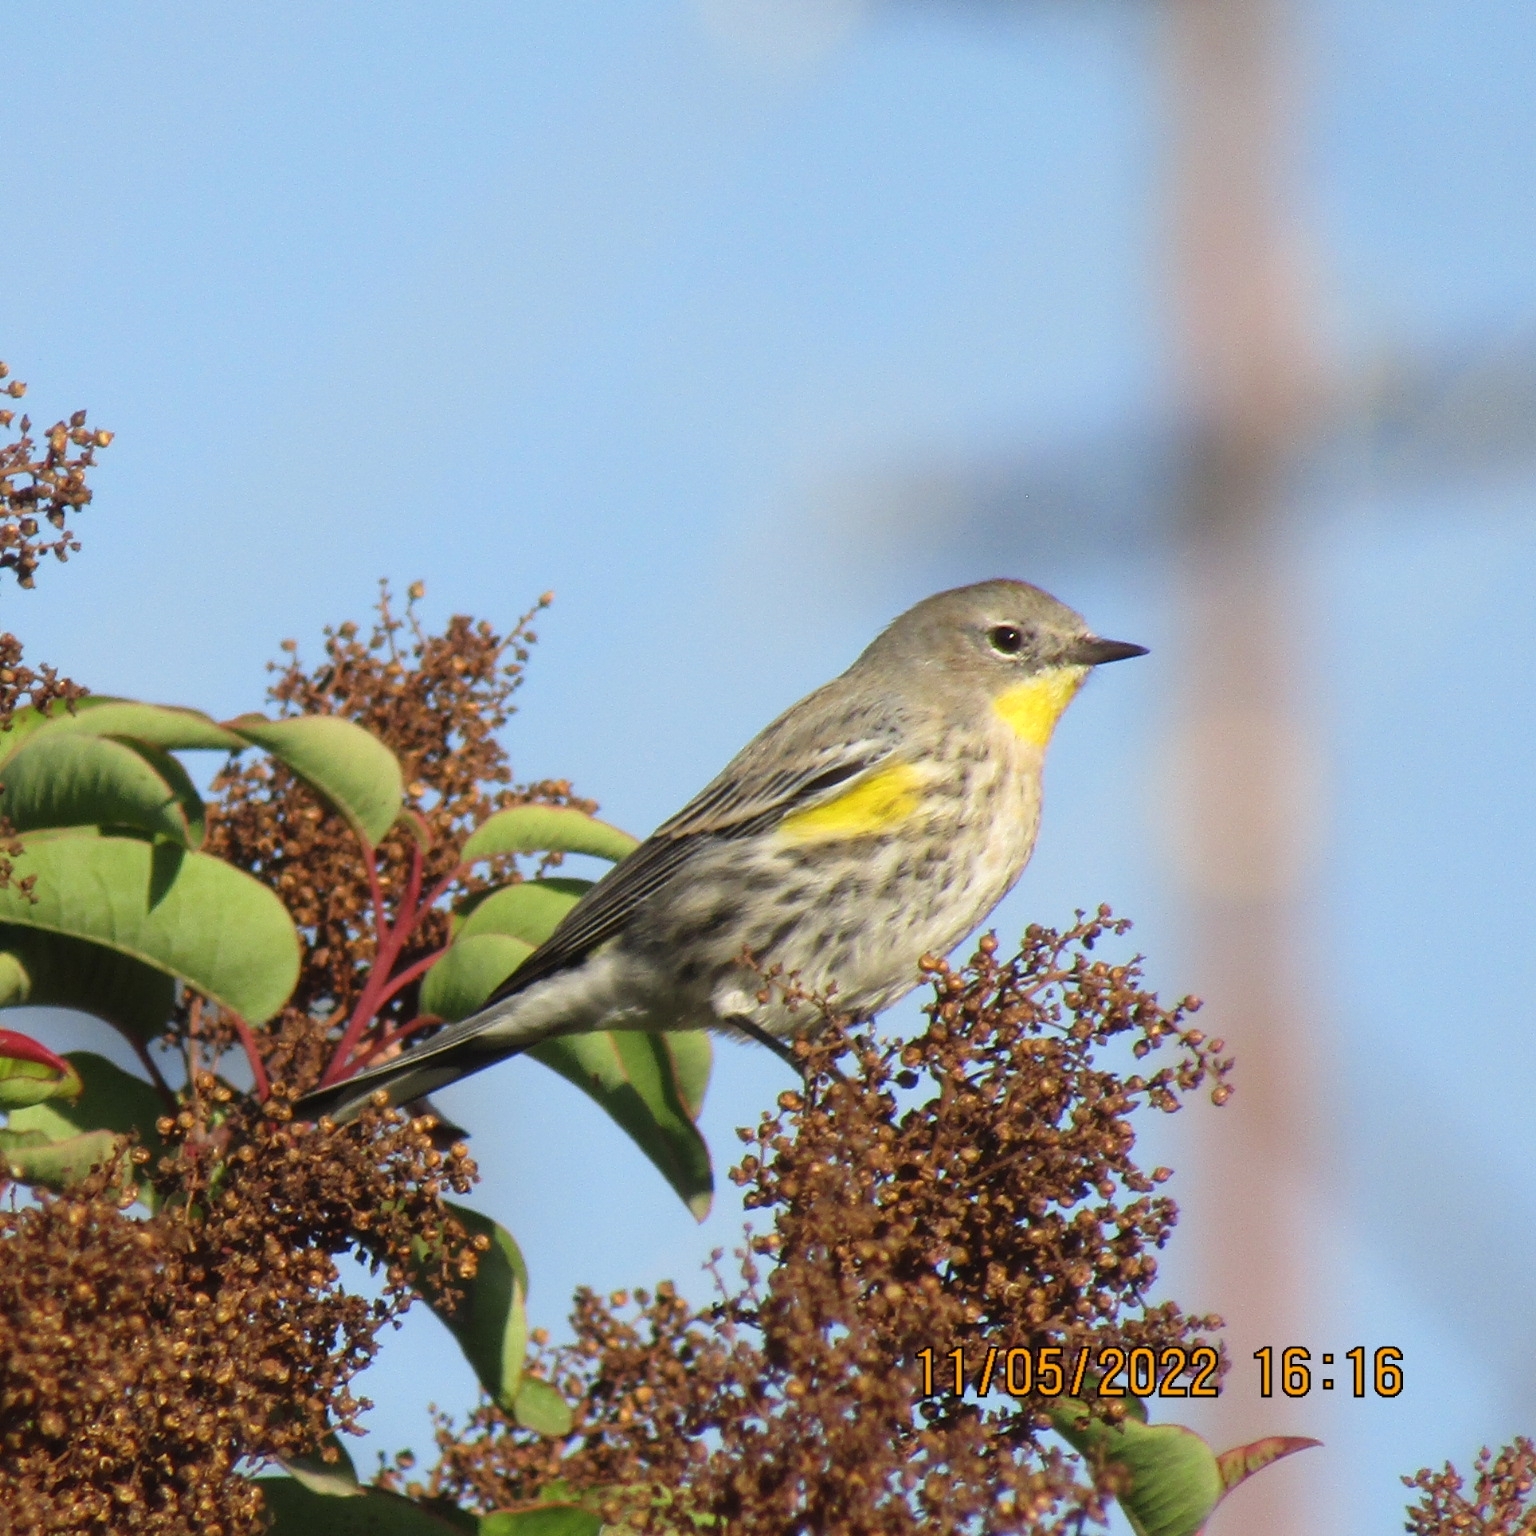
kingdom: Animalia
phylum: Chordata
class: Aves
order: Passeriformes
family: Parulidae
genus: Setophaga
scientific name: Setophaga coronata
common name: Myrtle warbler
